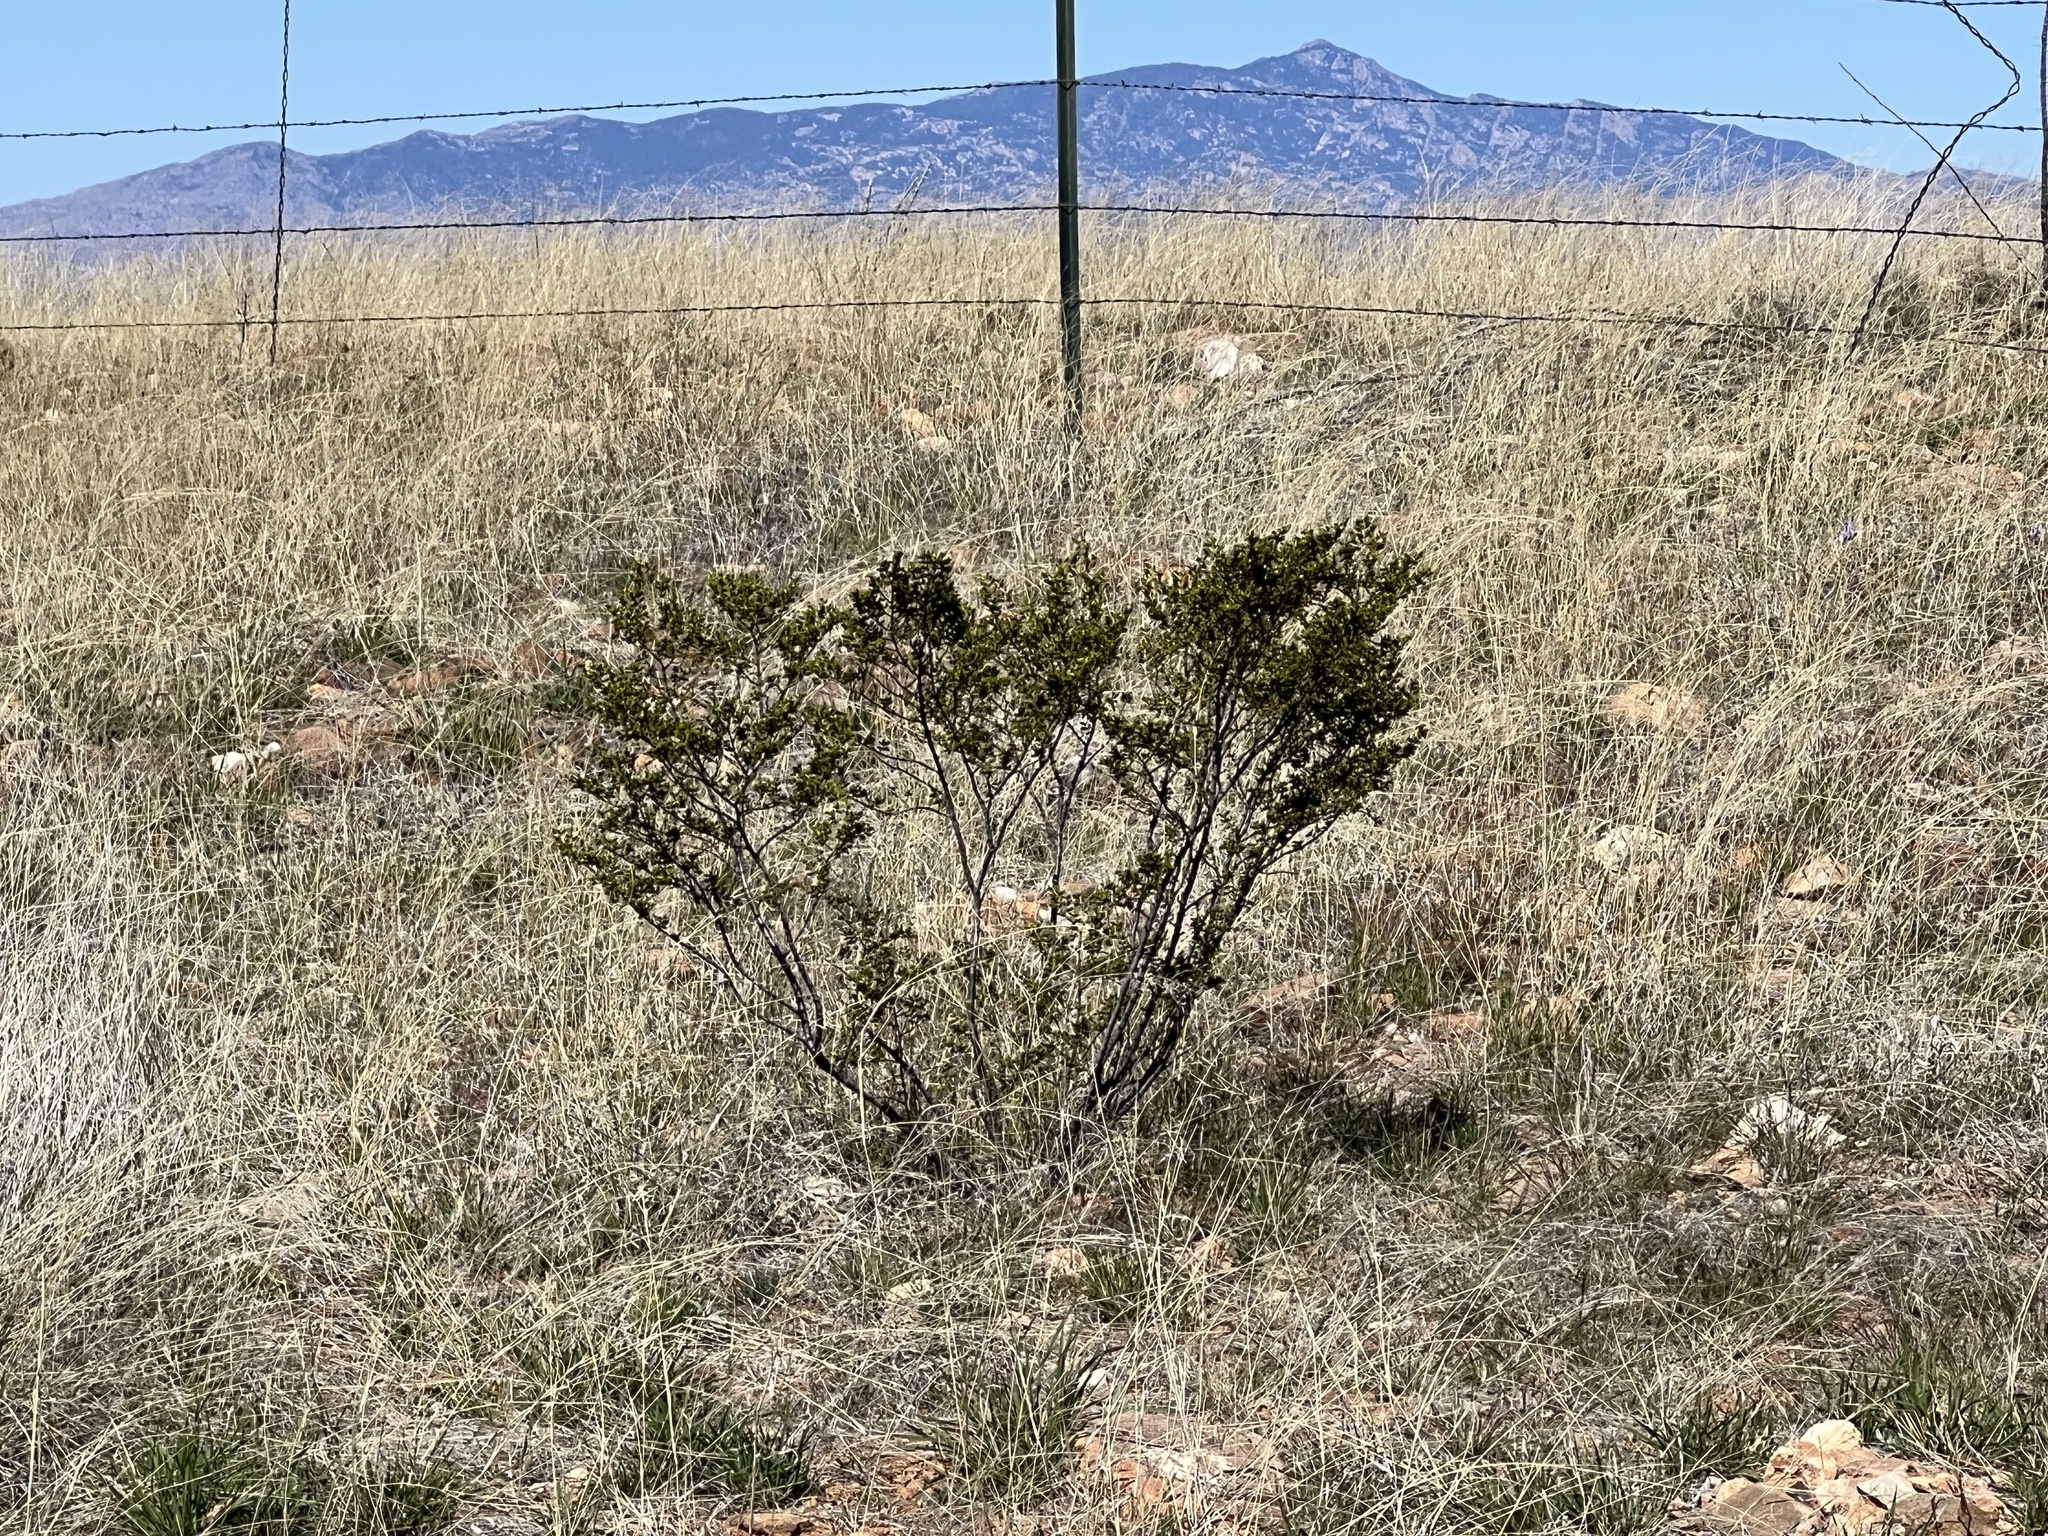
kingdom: Plantae
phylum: Tracheophyta
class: Magnoliopsida
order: Zygophyllales
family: Zygophyllaceae
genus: Larrea
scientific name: Larrea tridentata
